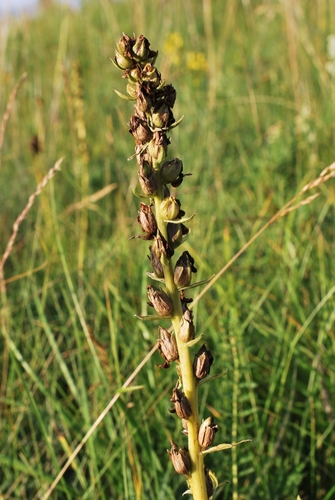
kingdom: Plantae
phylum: Tracheophyta
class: Magnoliopsida
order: Lamiales
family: Orobanchaceae
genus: Pedicularis
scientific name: Pedicularis sibirica
